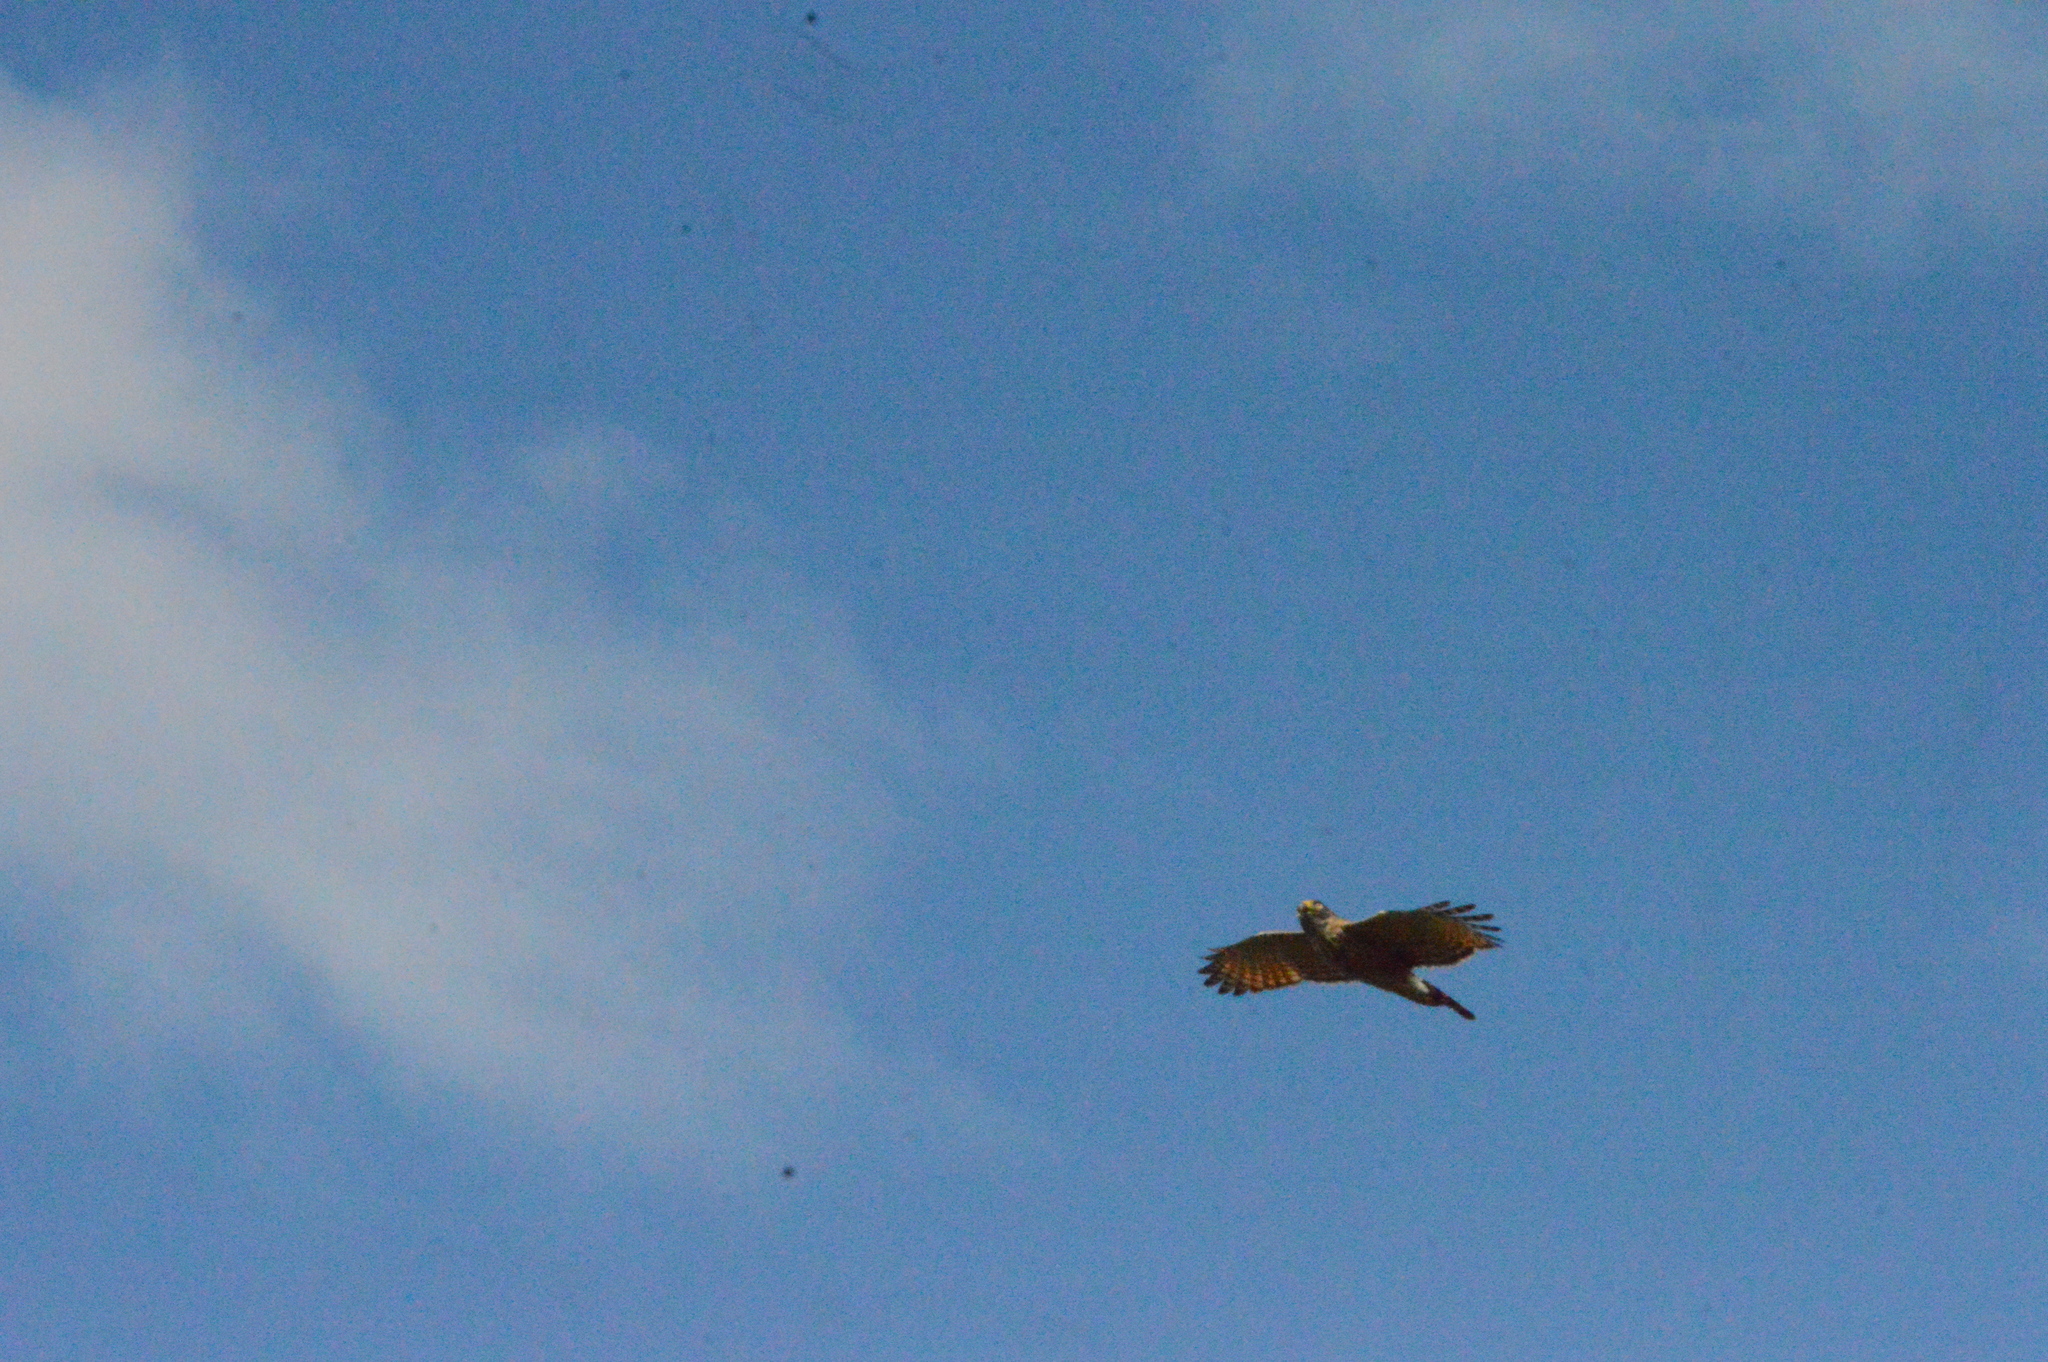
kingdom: Animalia
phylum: Chordata
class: Aves
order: Accipitriformes
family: Accipitridae
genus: Rupornis
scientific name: Rupornis magnirostris
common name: Roadside hawk
